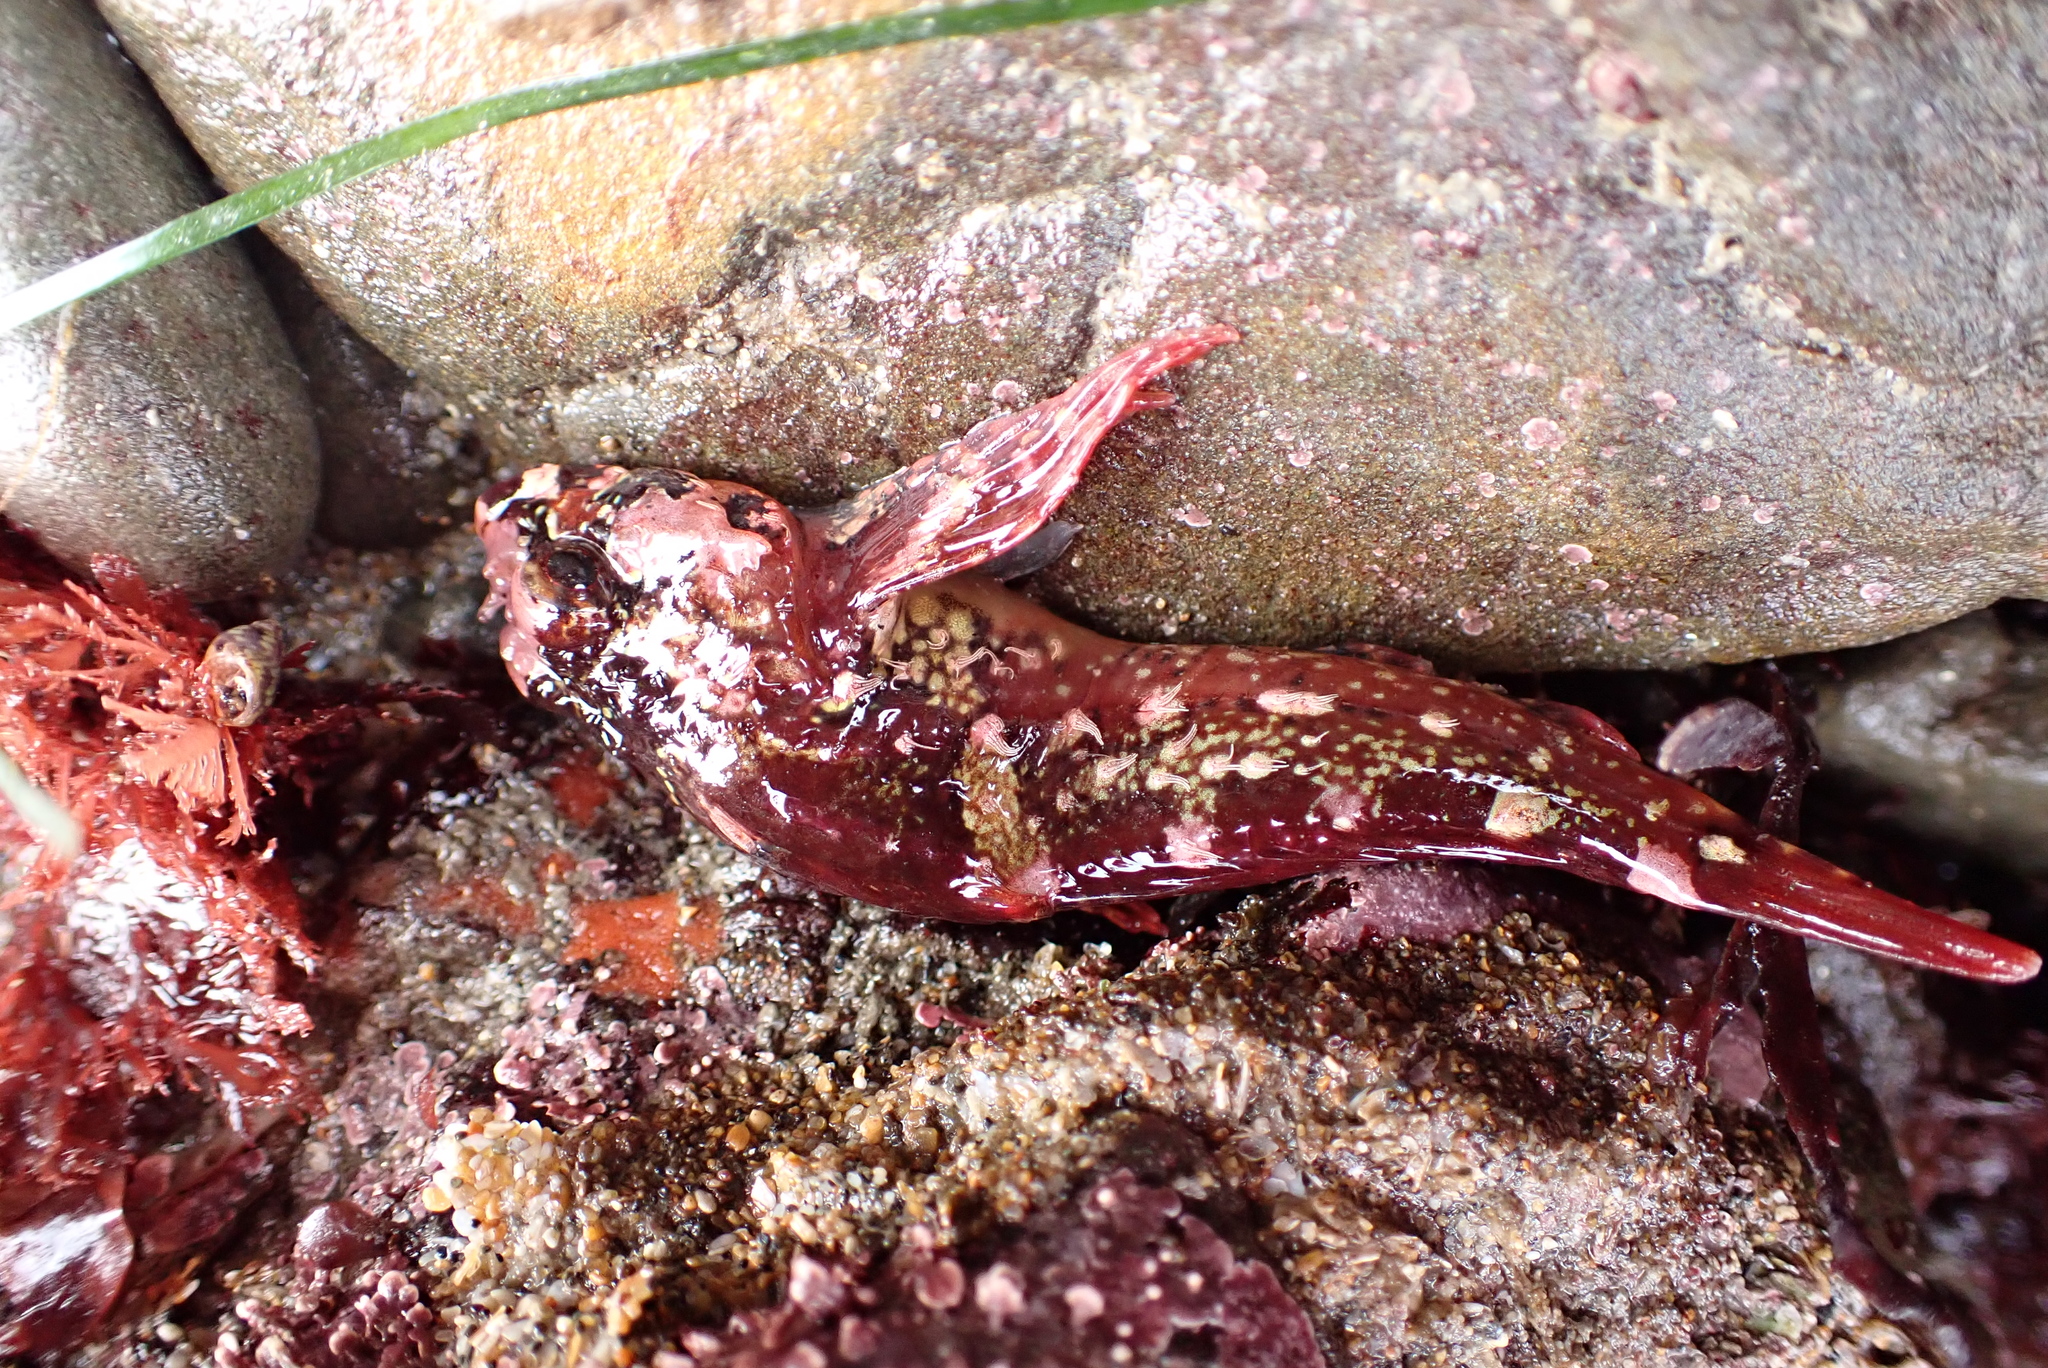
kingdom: Animalia
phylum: Chordata
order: Scorpaeniformes
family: Cottidae
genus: Oligocottus
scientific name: Oligocottus rubellio
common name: Rosy sculpin
